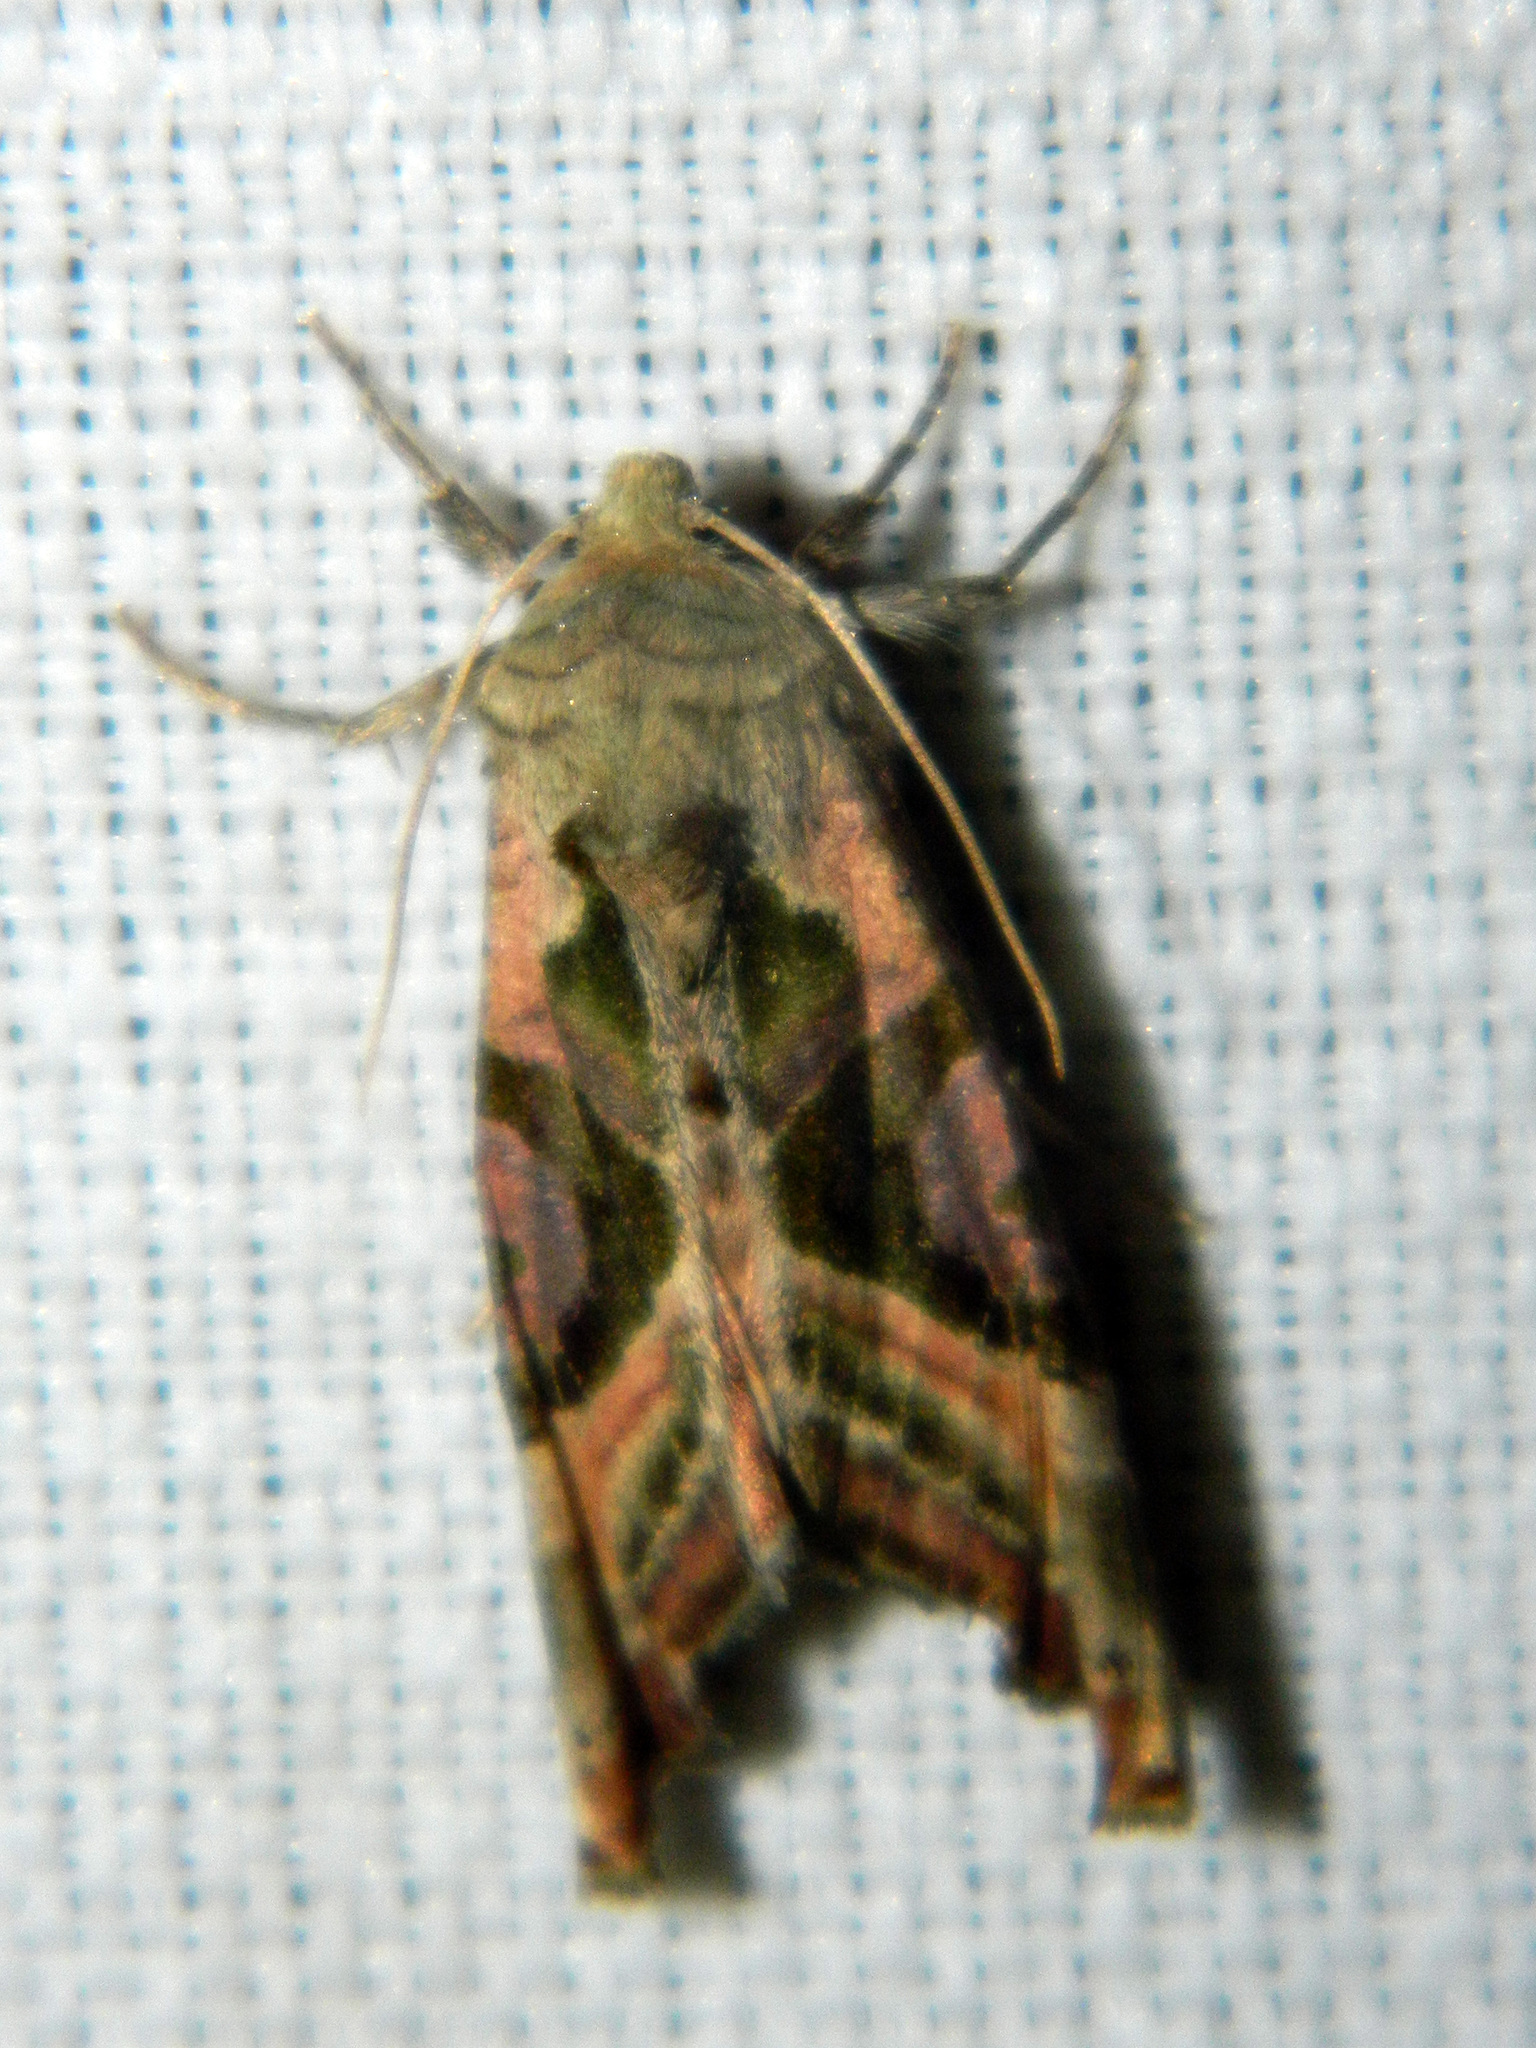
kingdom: Animalia
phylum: Arthropoda
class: Insecta
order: Lepidoptera
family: Noctuidae
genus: Phlogophora
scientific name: Phlogophora iris
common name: Olive angle shades
